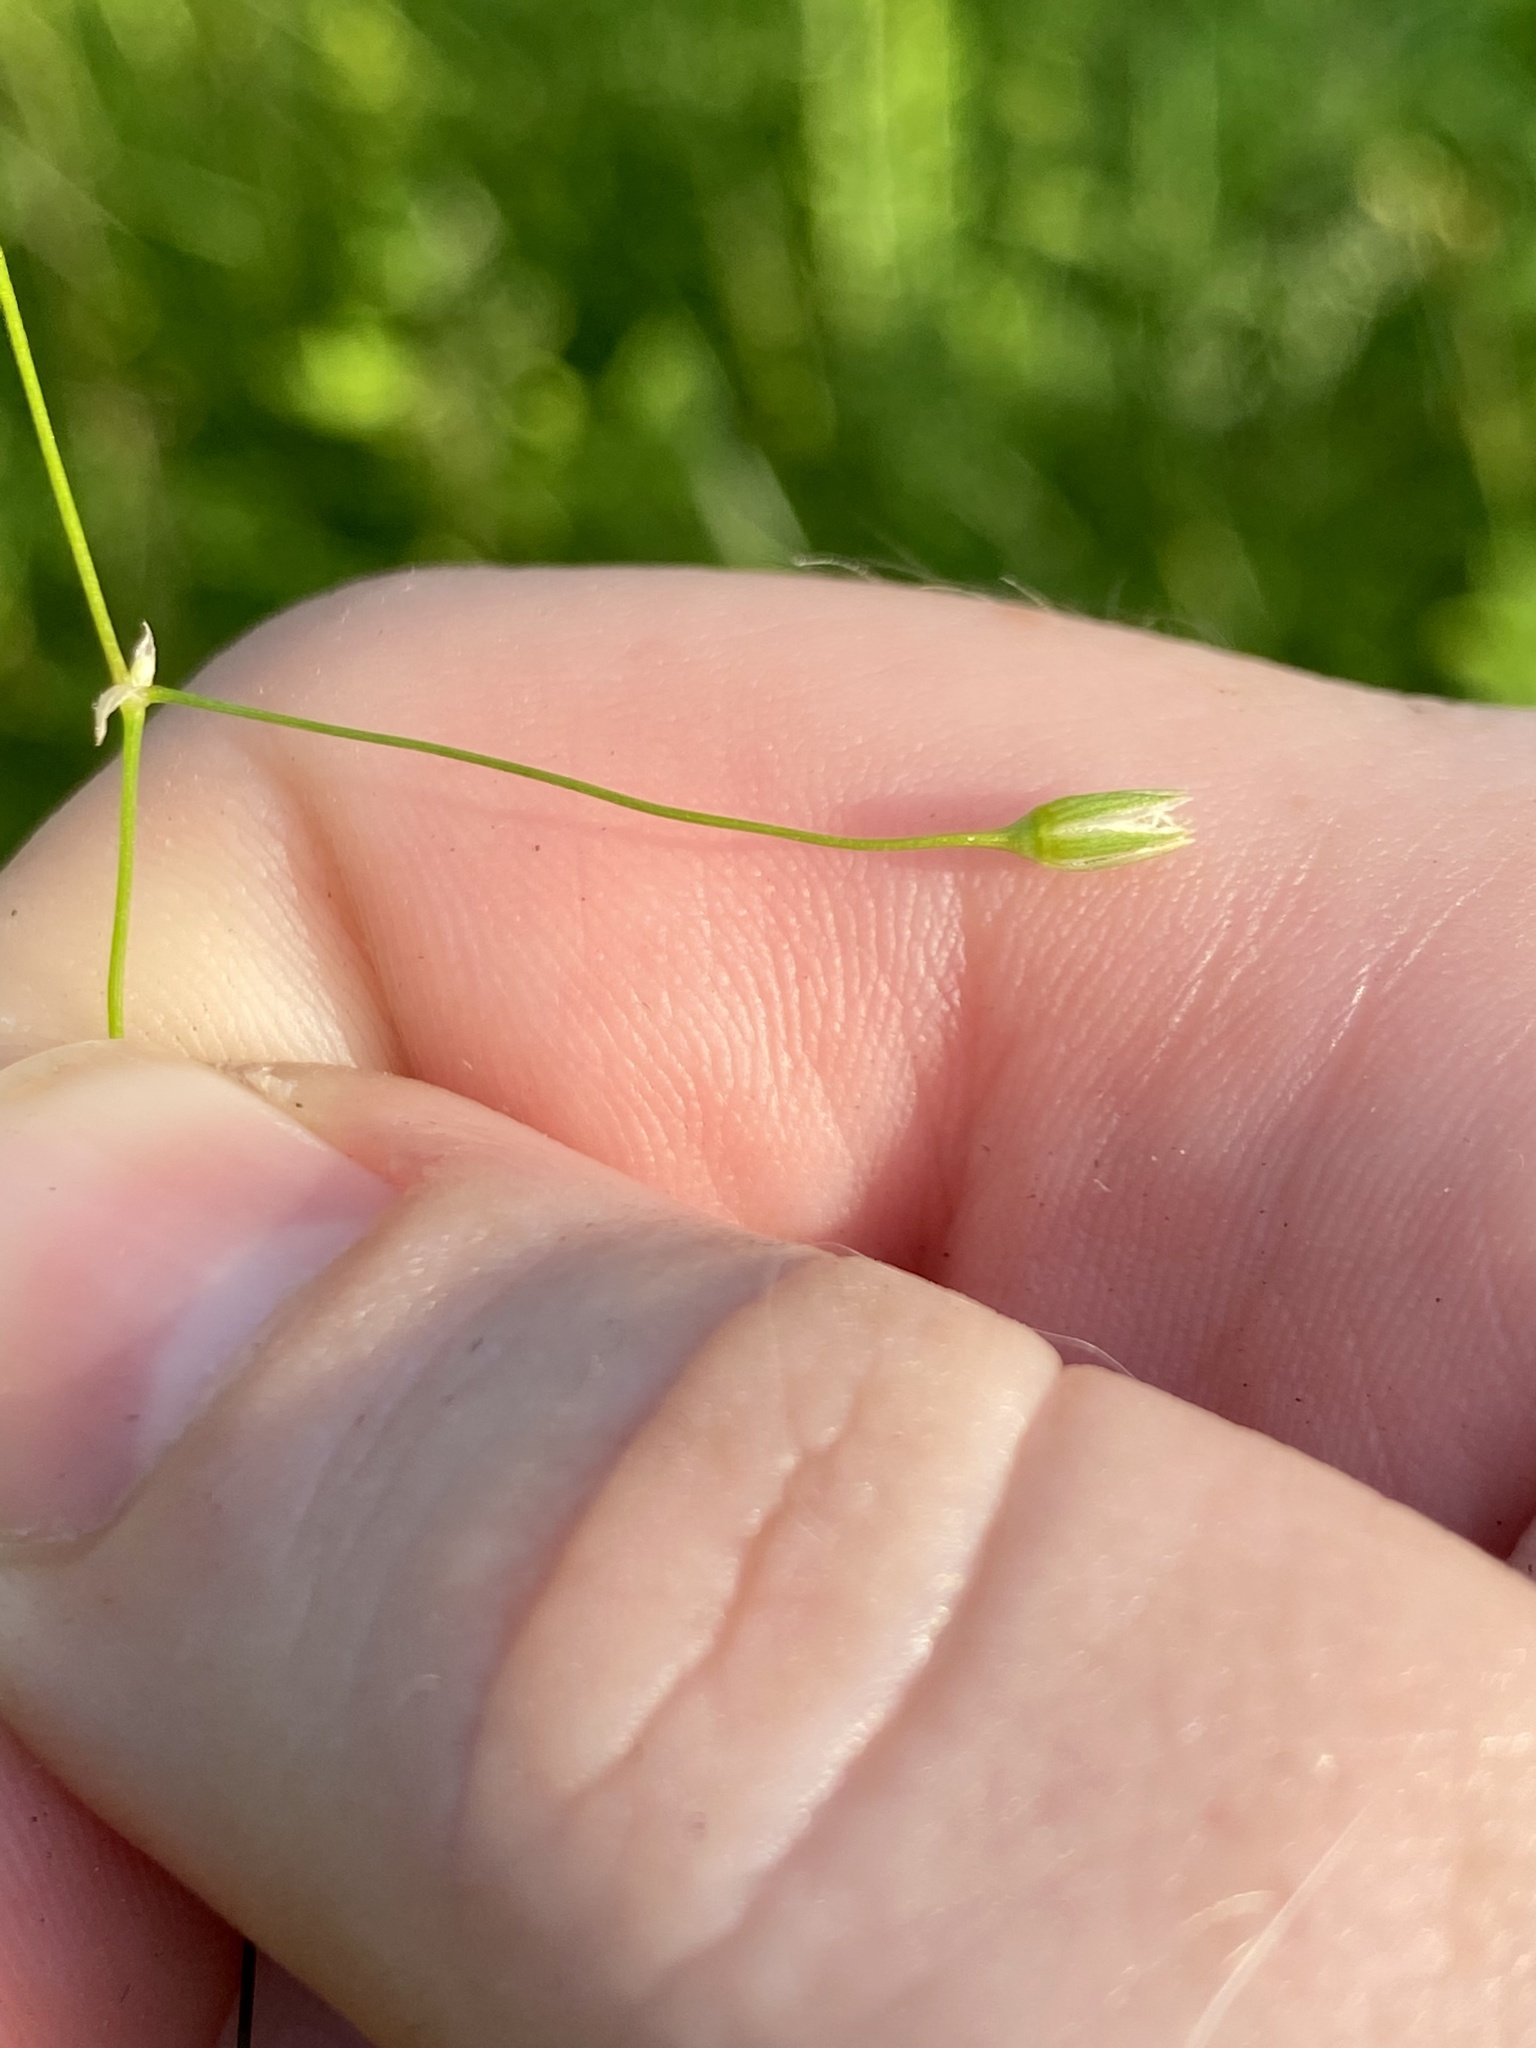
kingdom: Plantae
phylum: Tracheophyta
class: Magnoliopsida
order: Caryophyllales
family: Caryophyllaceae
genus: Stellaria
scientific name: Stellaria graminea
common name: Grass-like starwort
